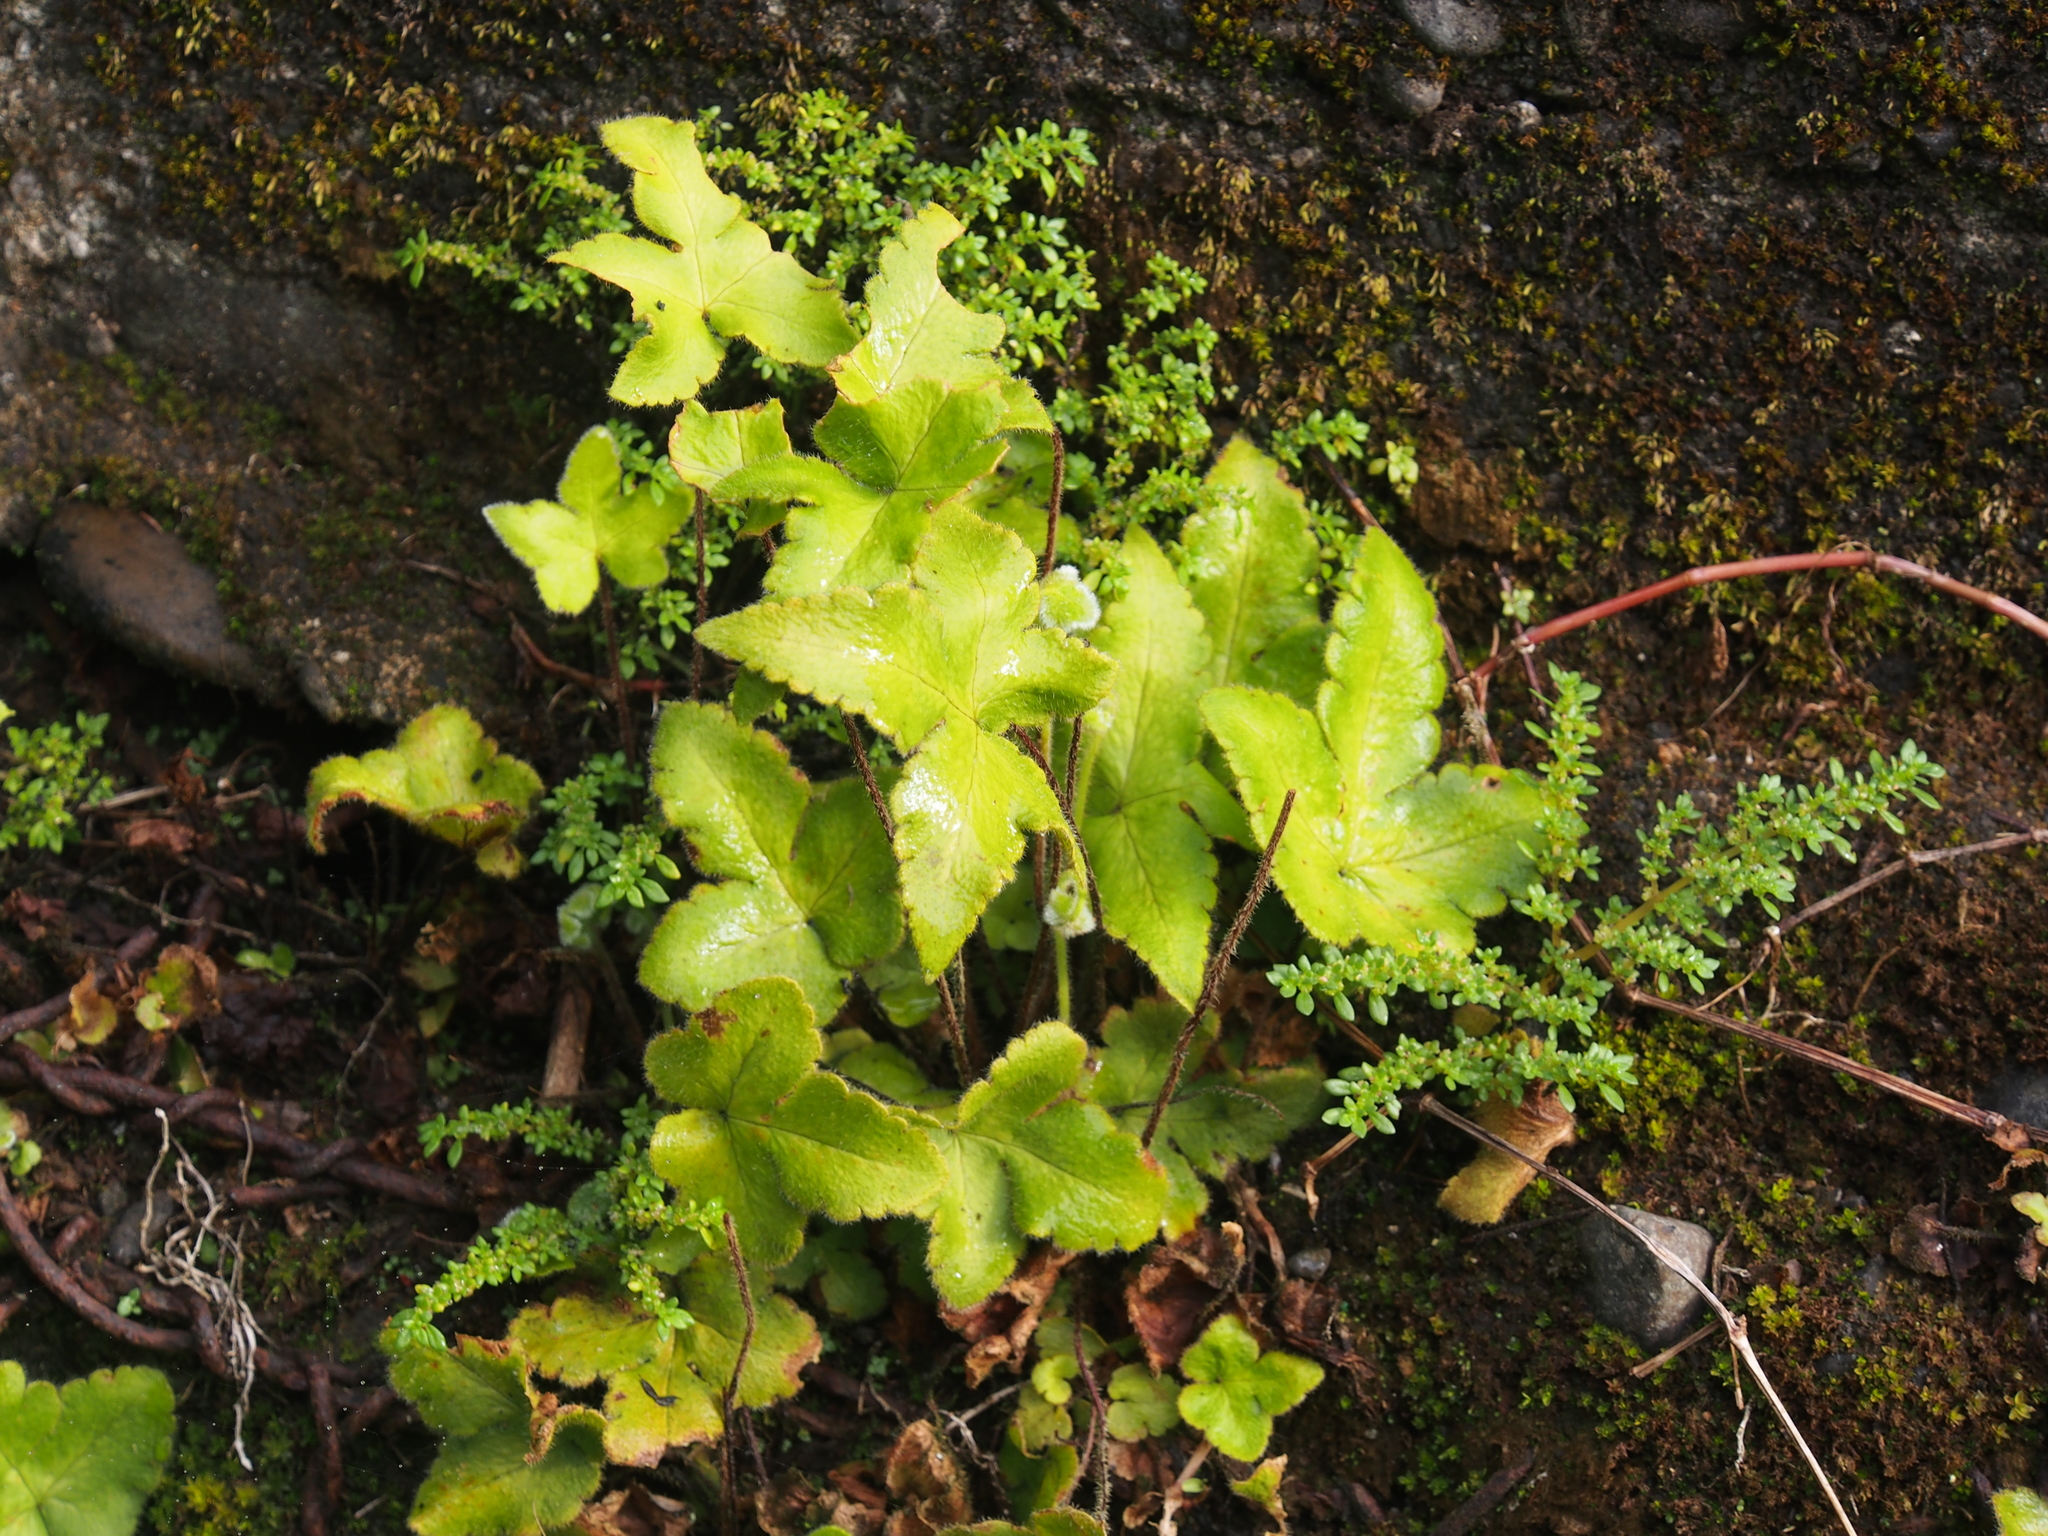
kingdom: Plantae
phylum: Tracheophyta
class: Polypodiopsida
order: Polypodiales
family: Pteridaceae
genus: Hemionitis
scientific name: Hemionitis palmata
